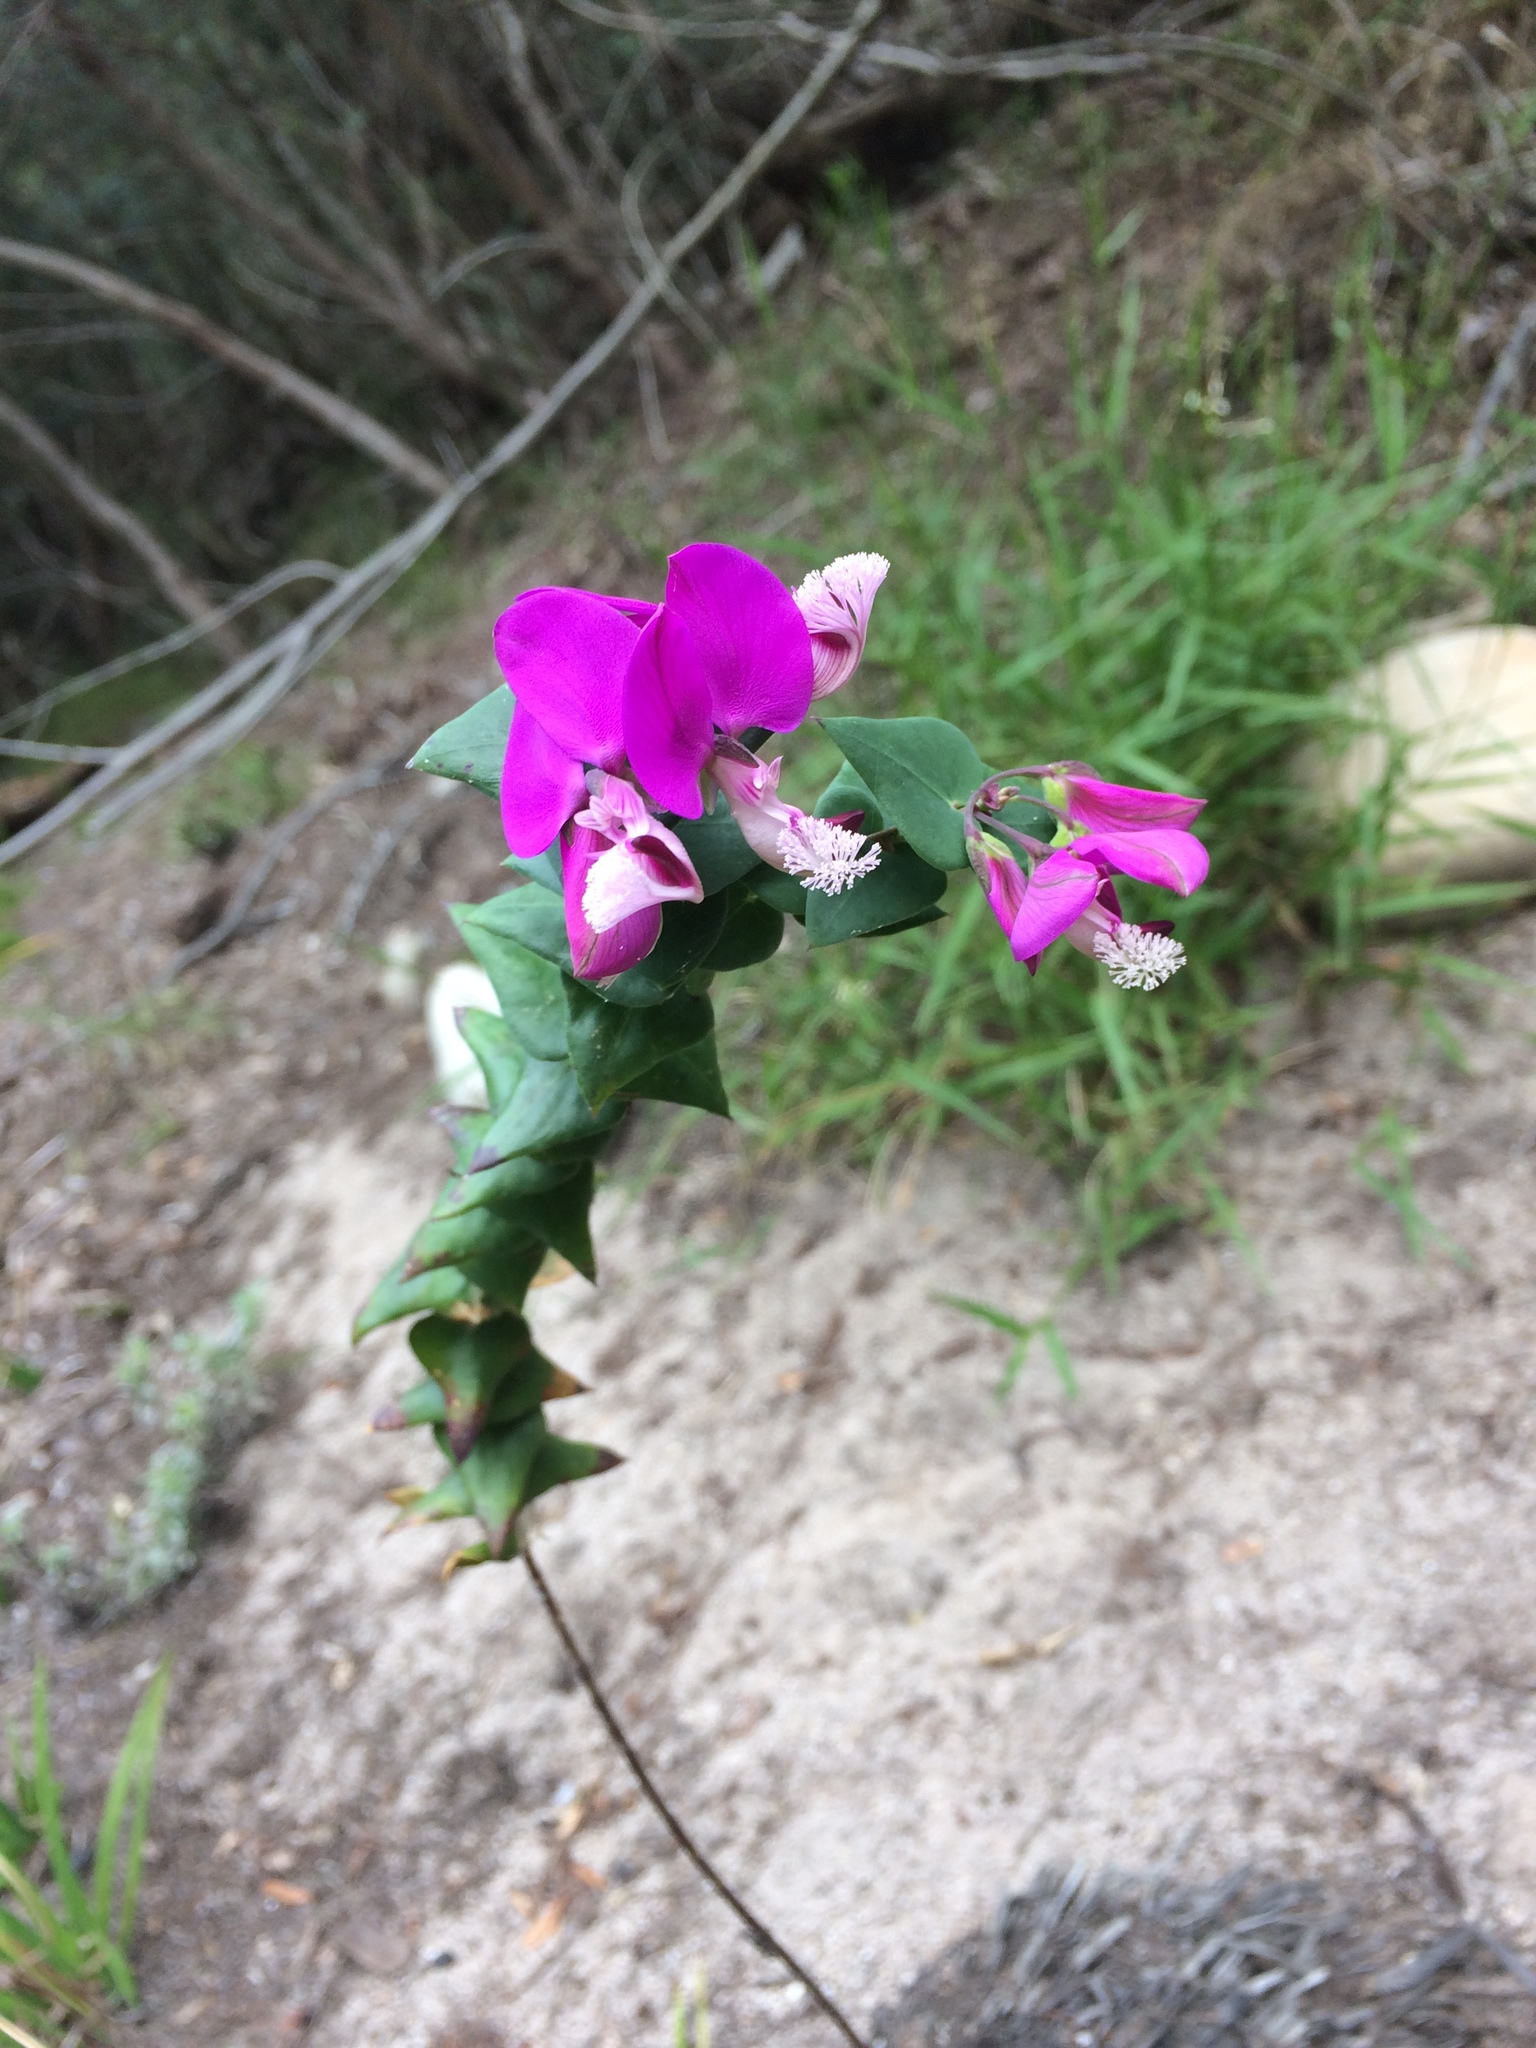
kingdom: Plantae
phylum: Tracheophyta
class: Magnoliopsida
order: Fabales
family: Polygalaceae
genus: Polygala
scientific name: Polygala fruticosa
